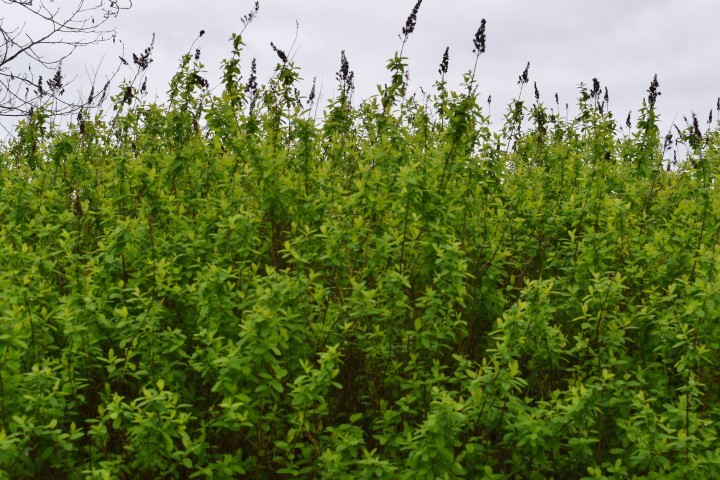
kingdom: Plantae
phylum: Tracheophyta
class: Magnoliopsida
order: Rosales
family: Rosaceae
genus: Spiraea
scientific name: Spiraea douglasii
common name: Steeplebush
